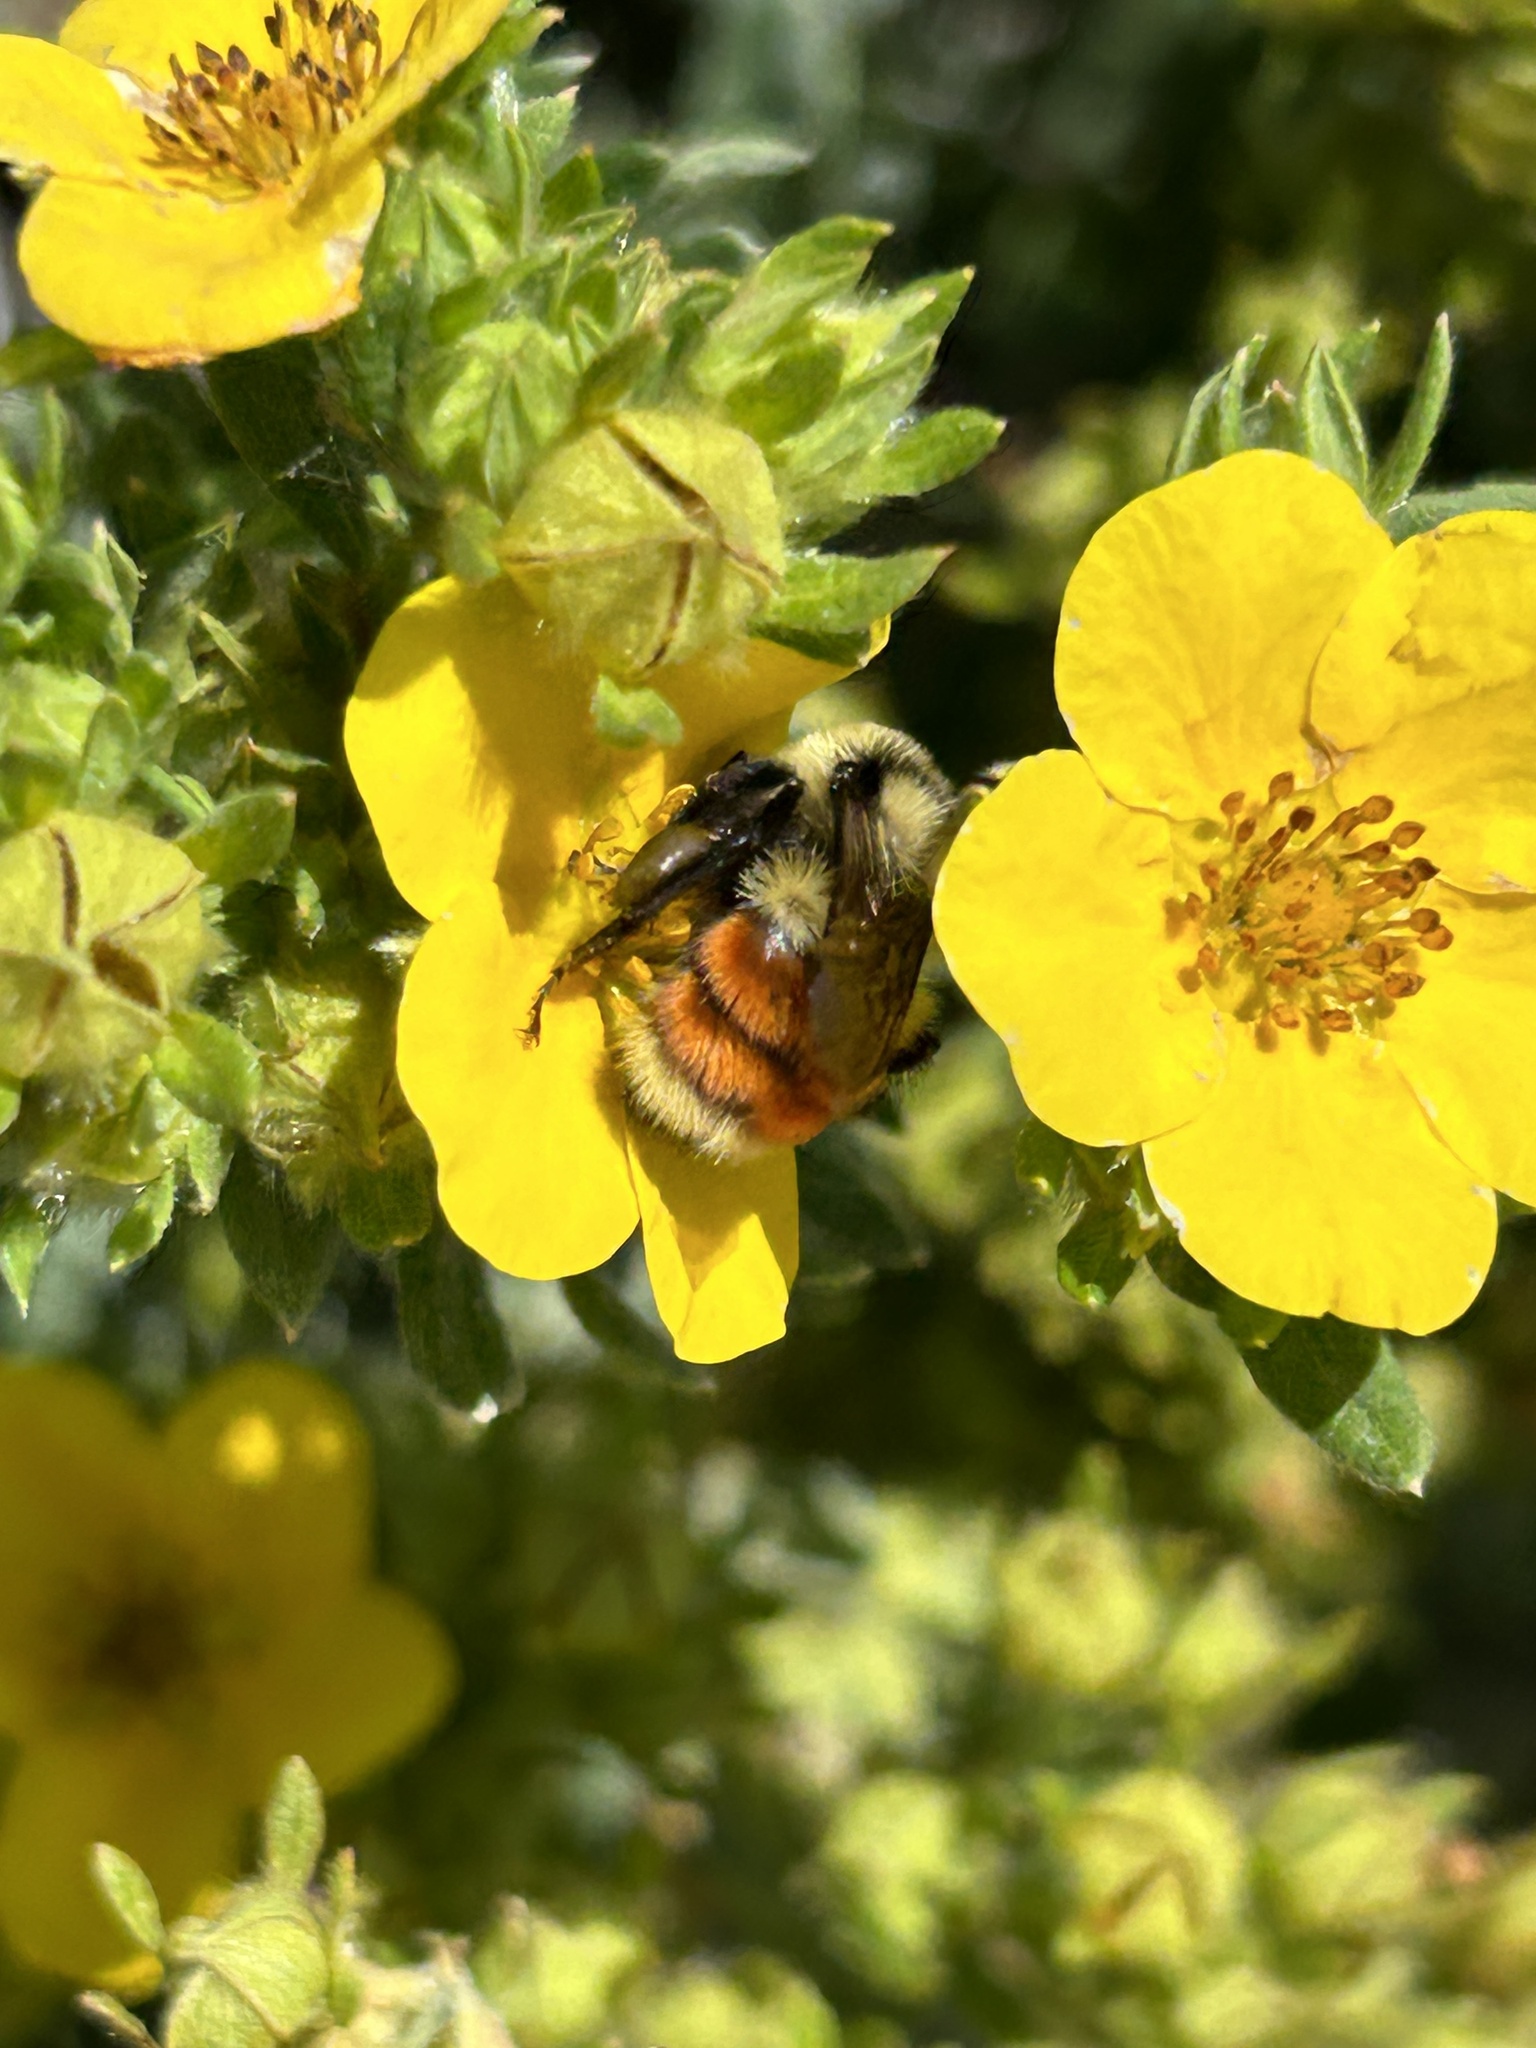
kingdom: Animalia
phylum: Arthropoda
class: Insecta
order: Hymenoptera
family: Apidae
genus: Bombus
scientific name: Bombus huntii
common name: Hunt bumble bee
